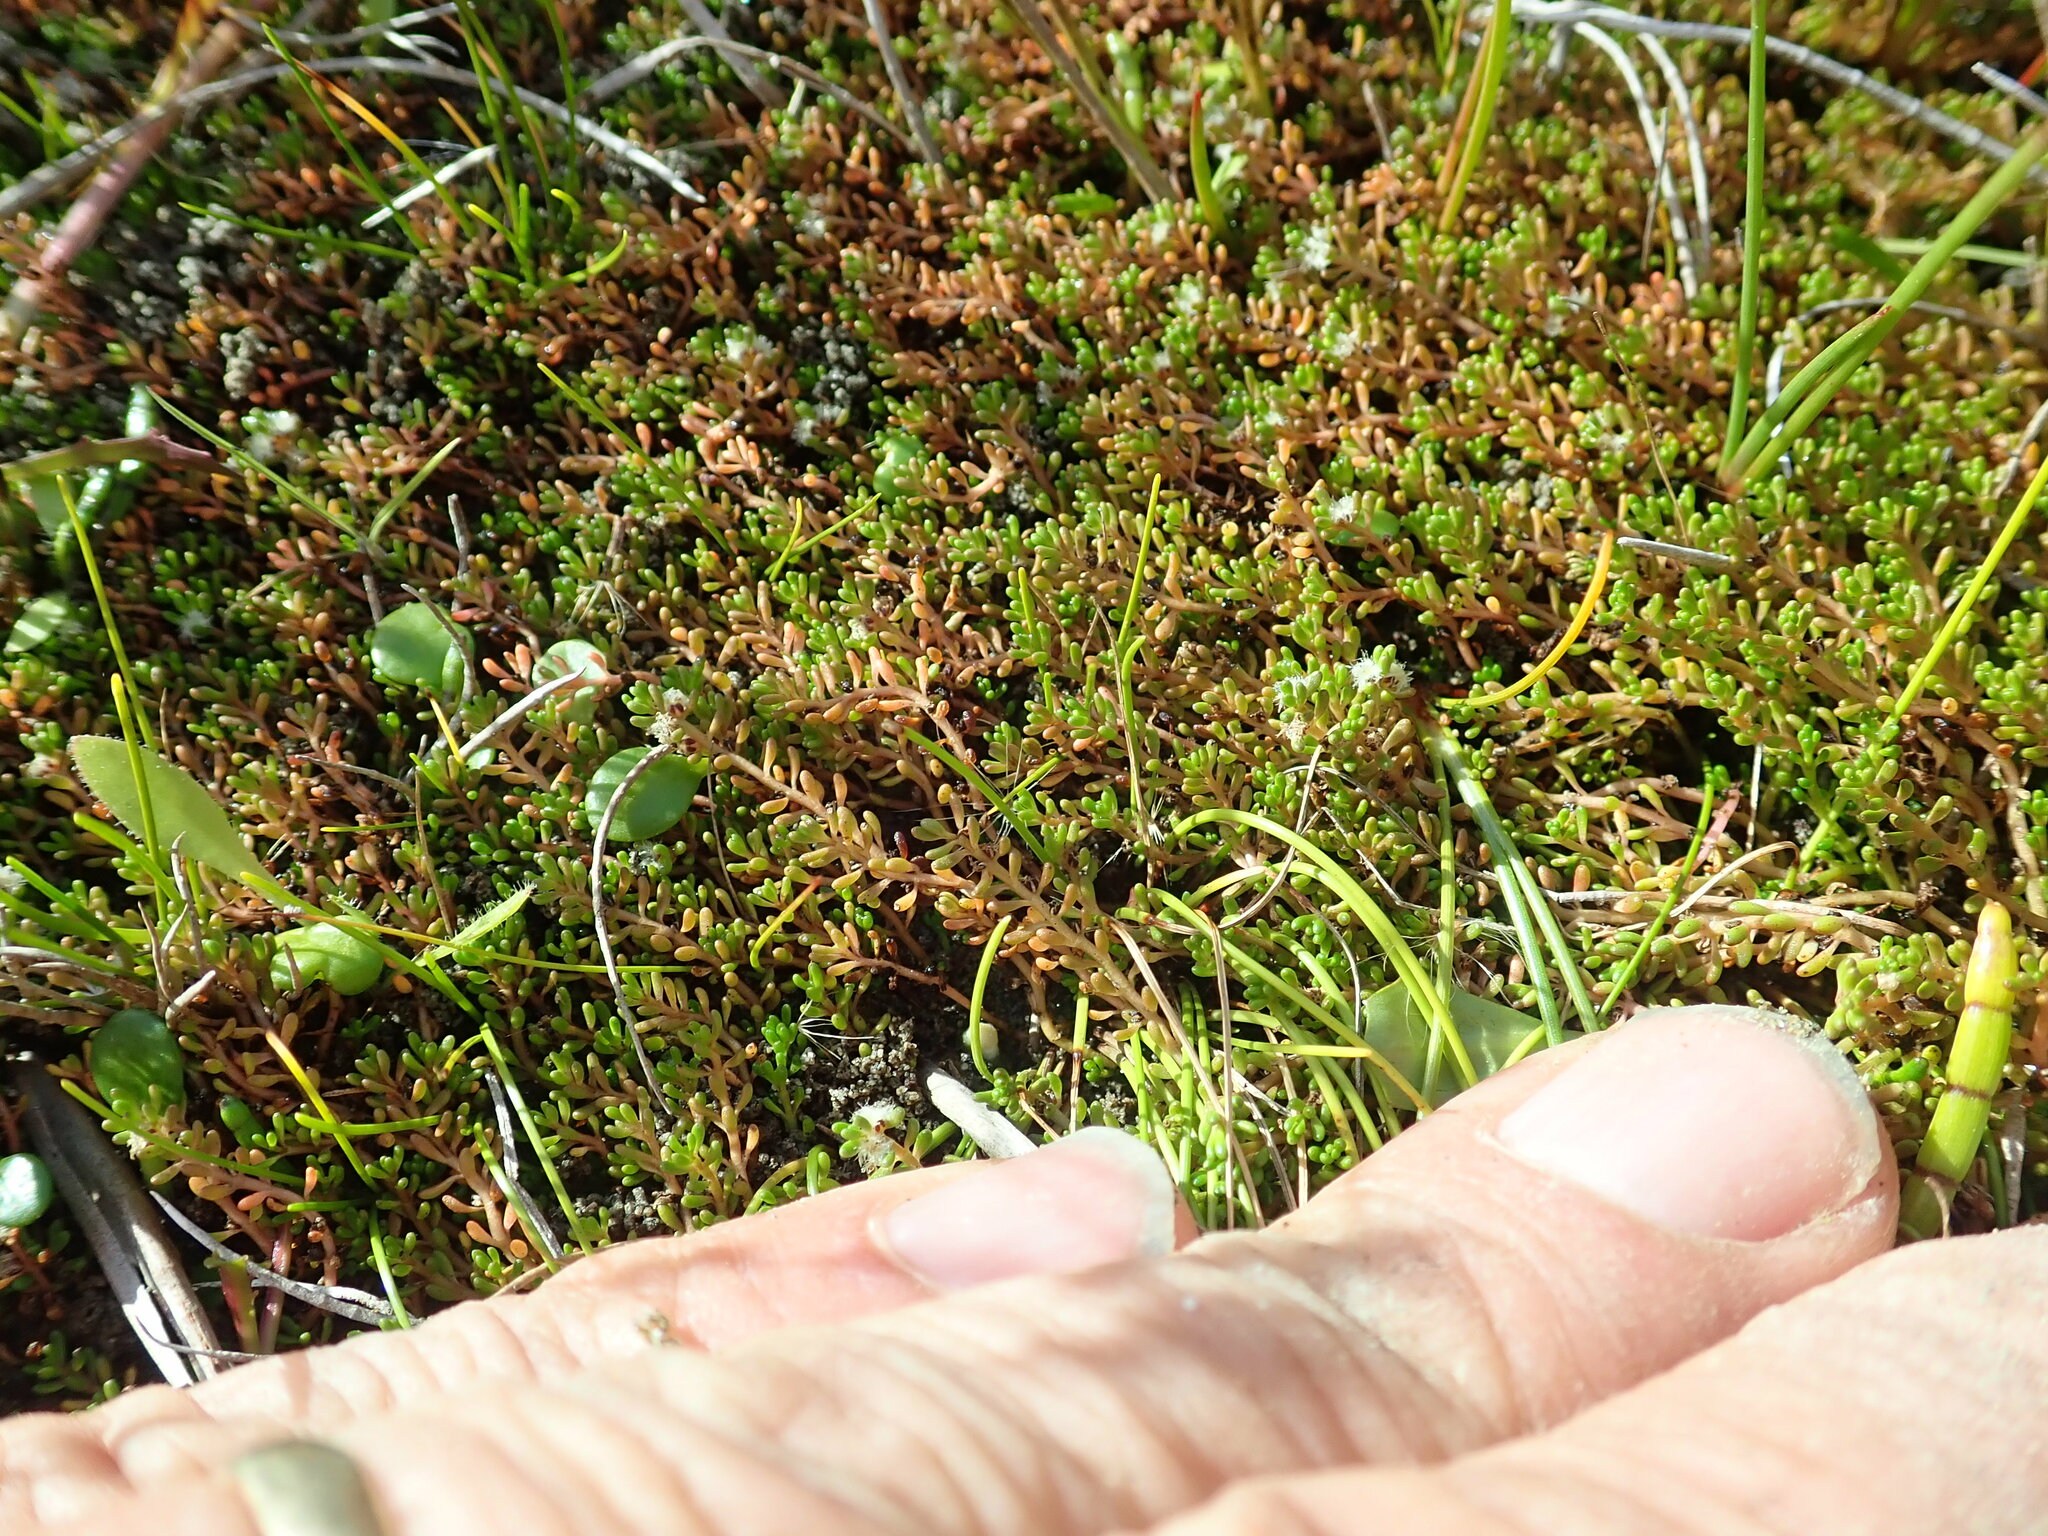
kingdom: Plantae
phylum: Tracheophyta
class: Magnoliopsida
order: Saxifragales
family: Haloragaceae
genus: Myriophyllum
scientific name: Myriophyllum votschii
